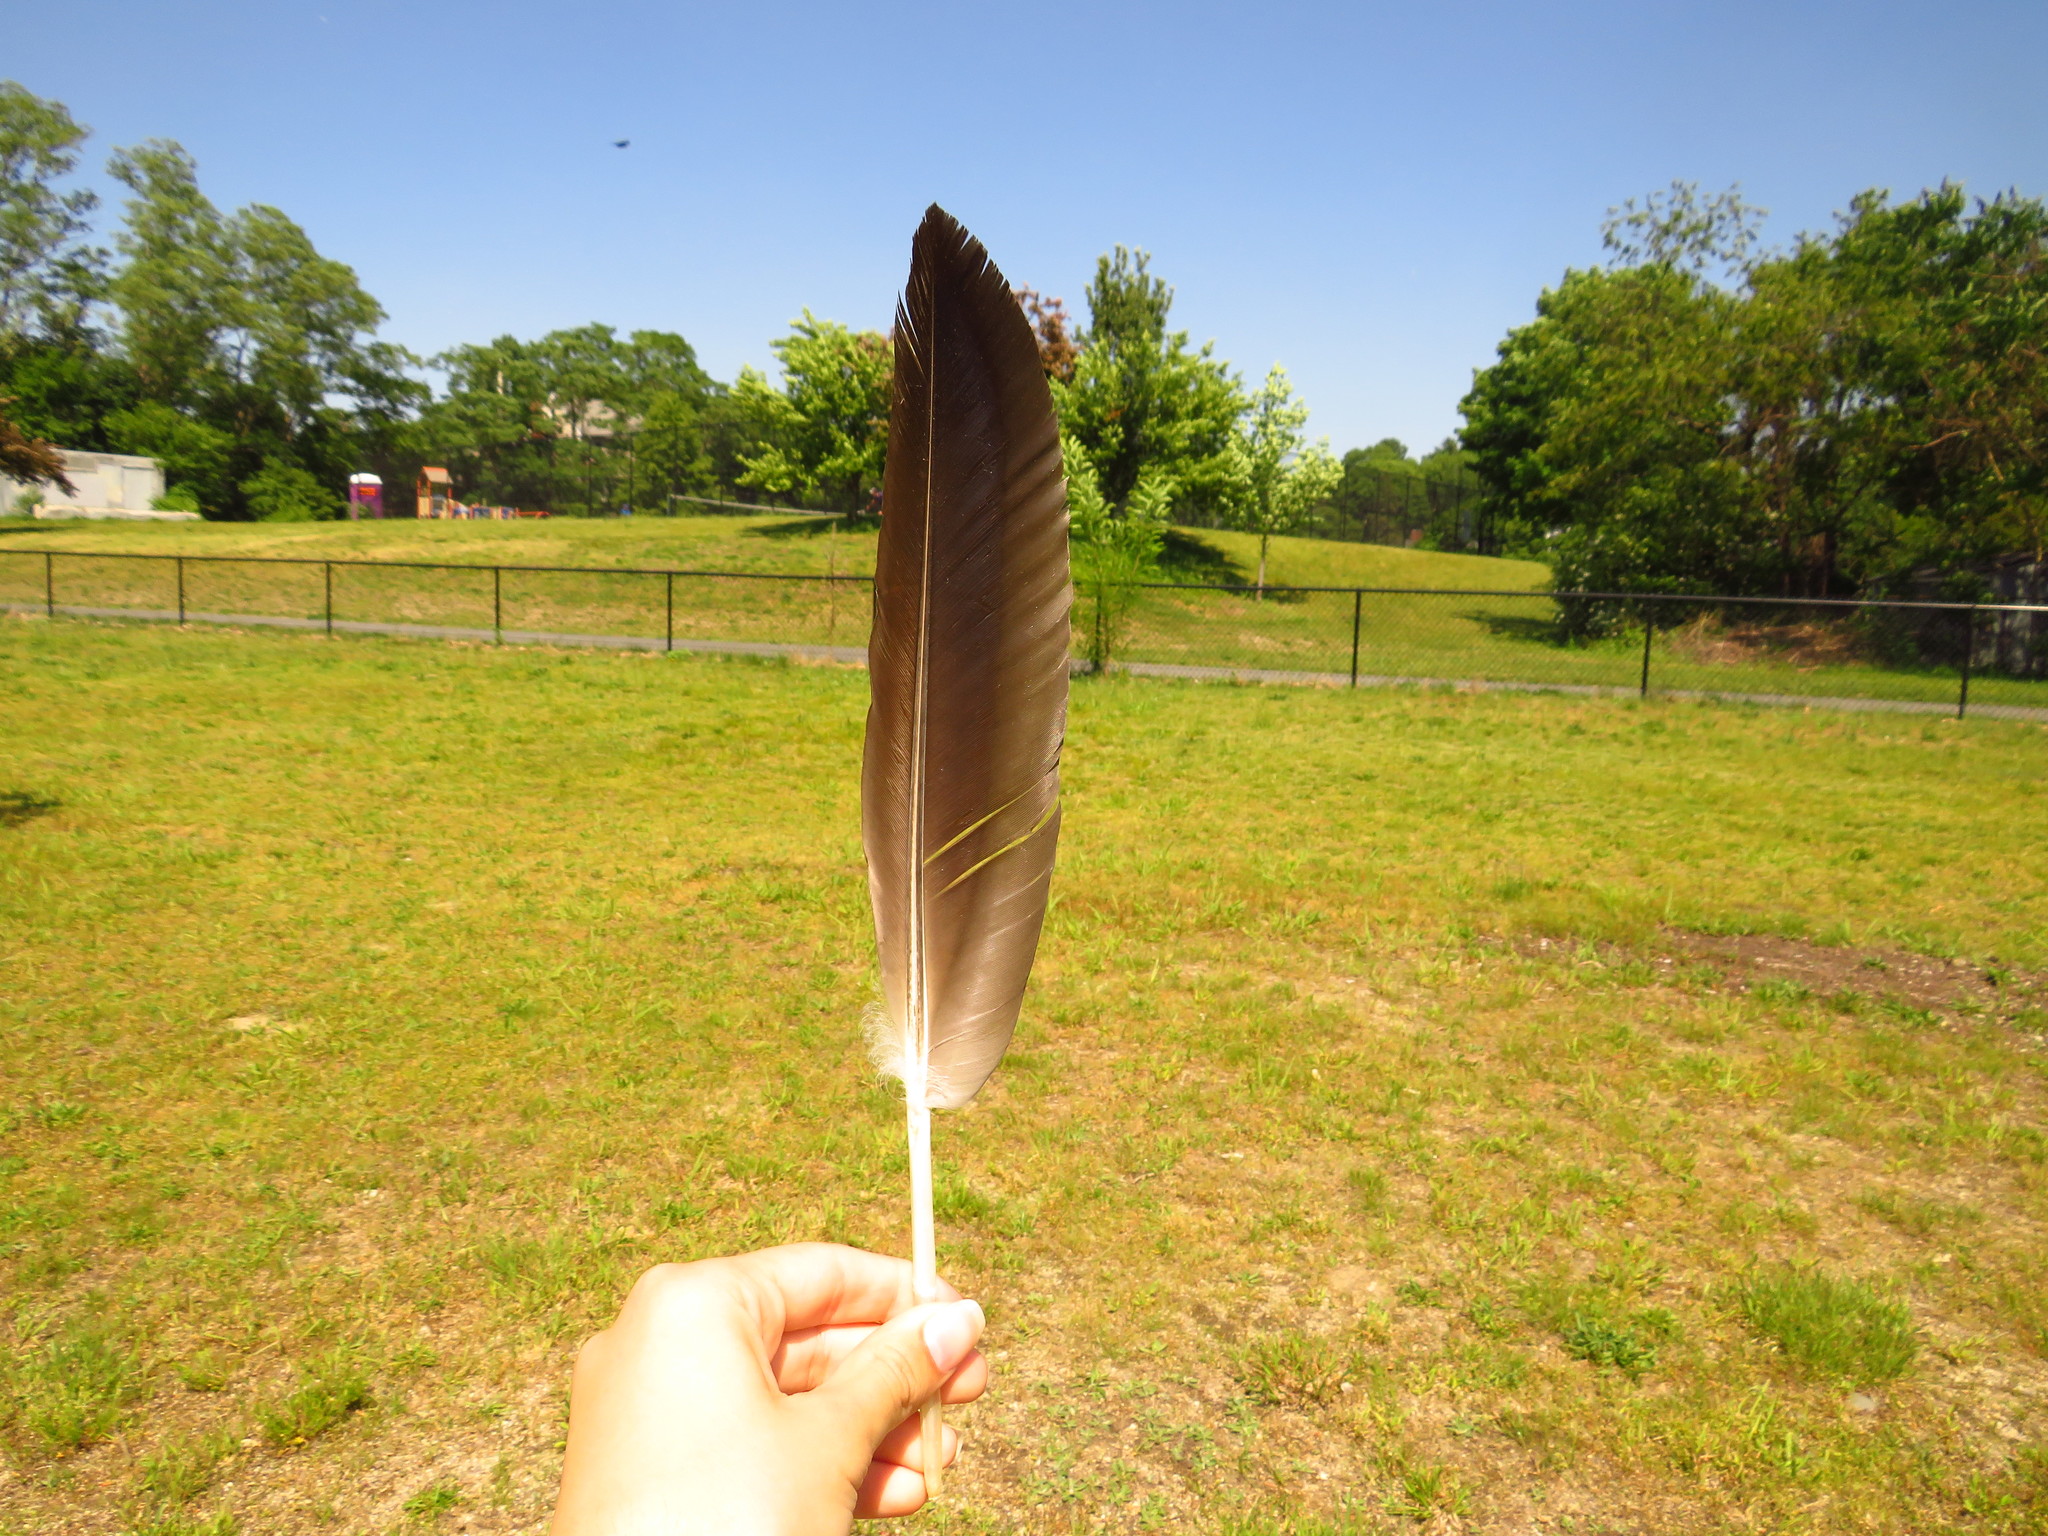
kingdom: Animalia
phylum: Chordata
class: Aves
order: Anseriformes
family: Anatidae
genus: Branta
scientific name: Branta canadensis
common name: Canada goose
